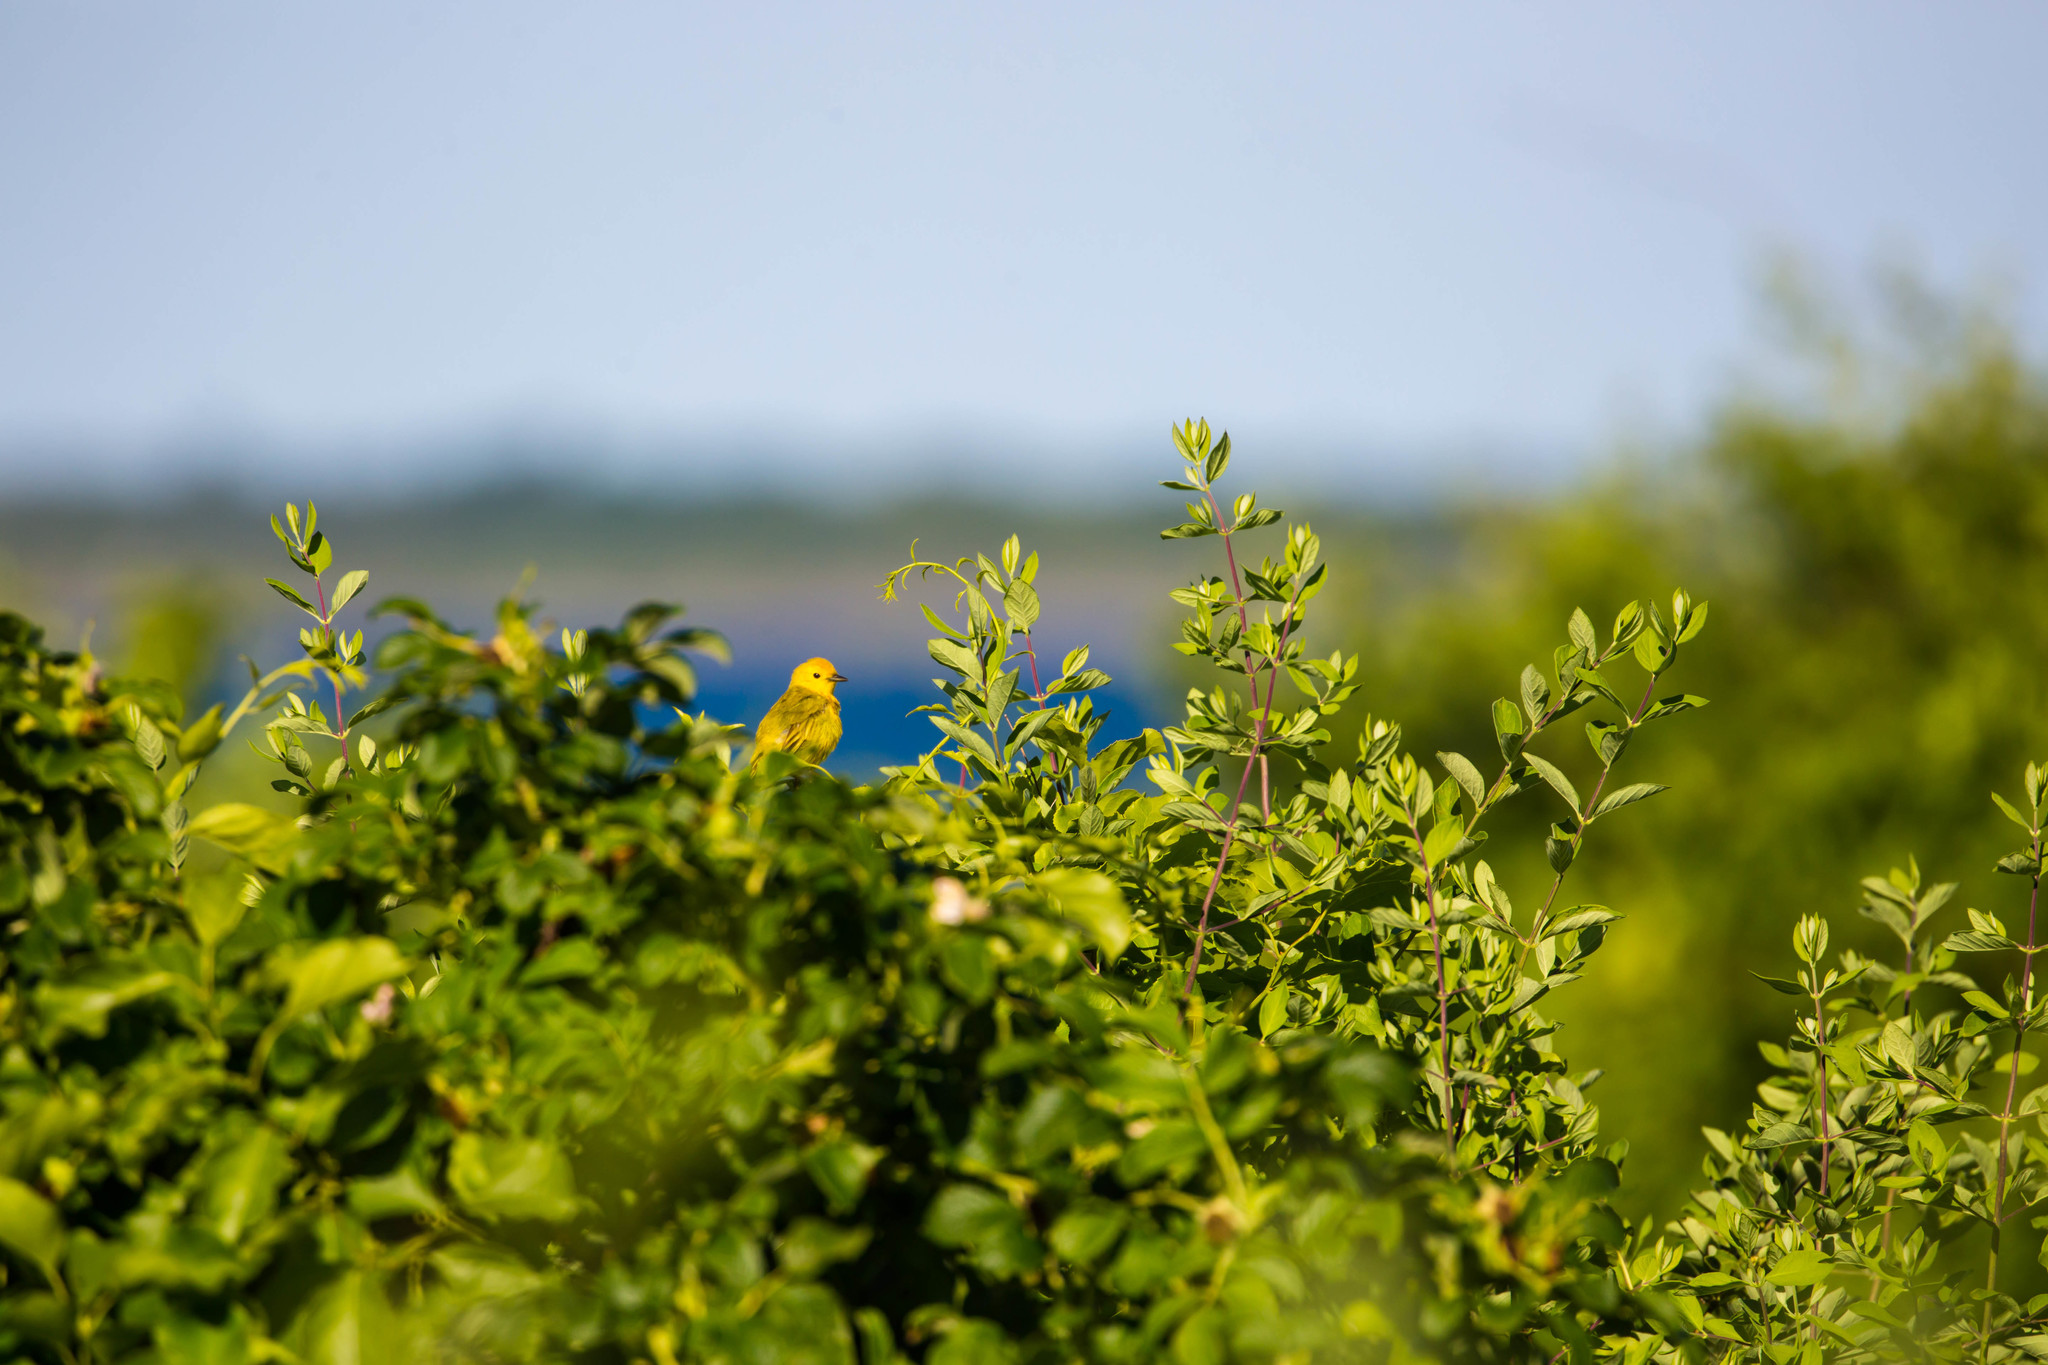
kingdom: Animalia
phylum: Chordata
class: Aves
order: Passeriformes
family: Parulidae
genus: Setophaga
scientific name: Setophaga petechia
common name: Yellow warbler
